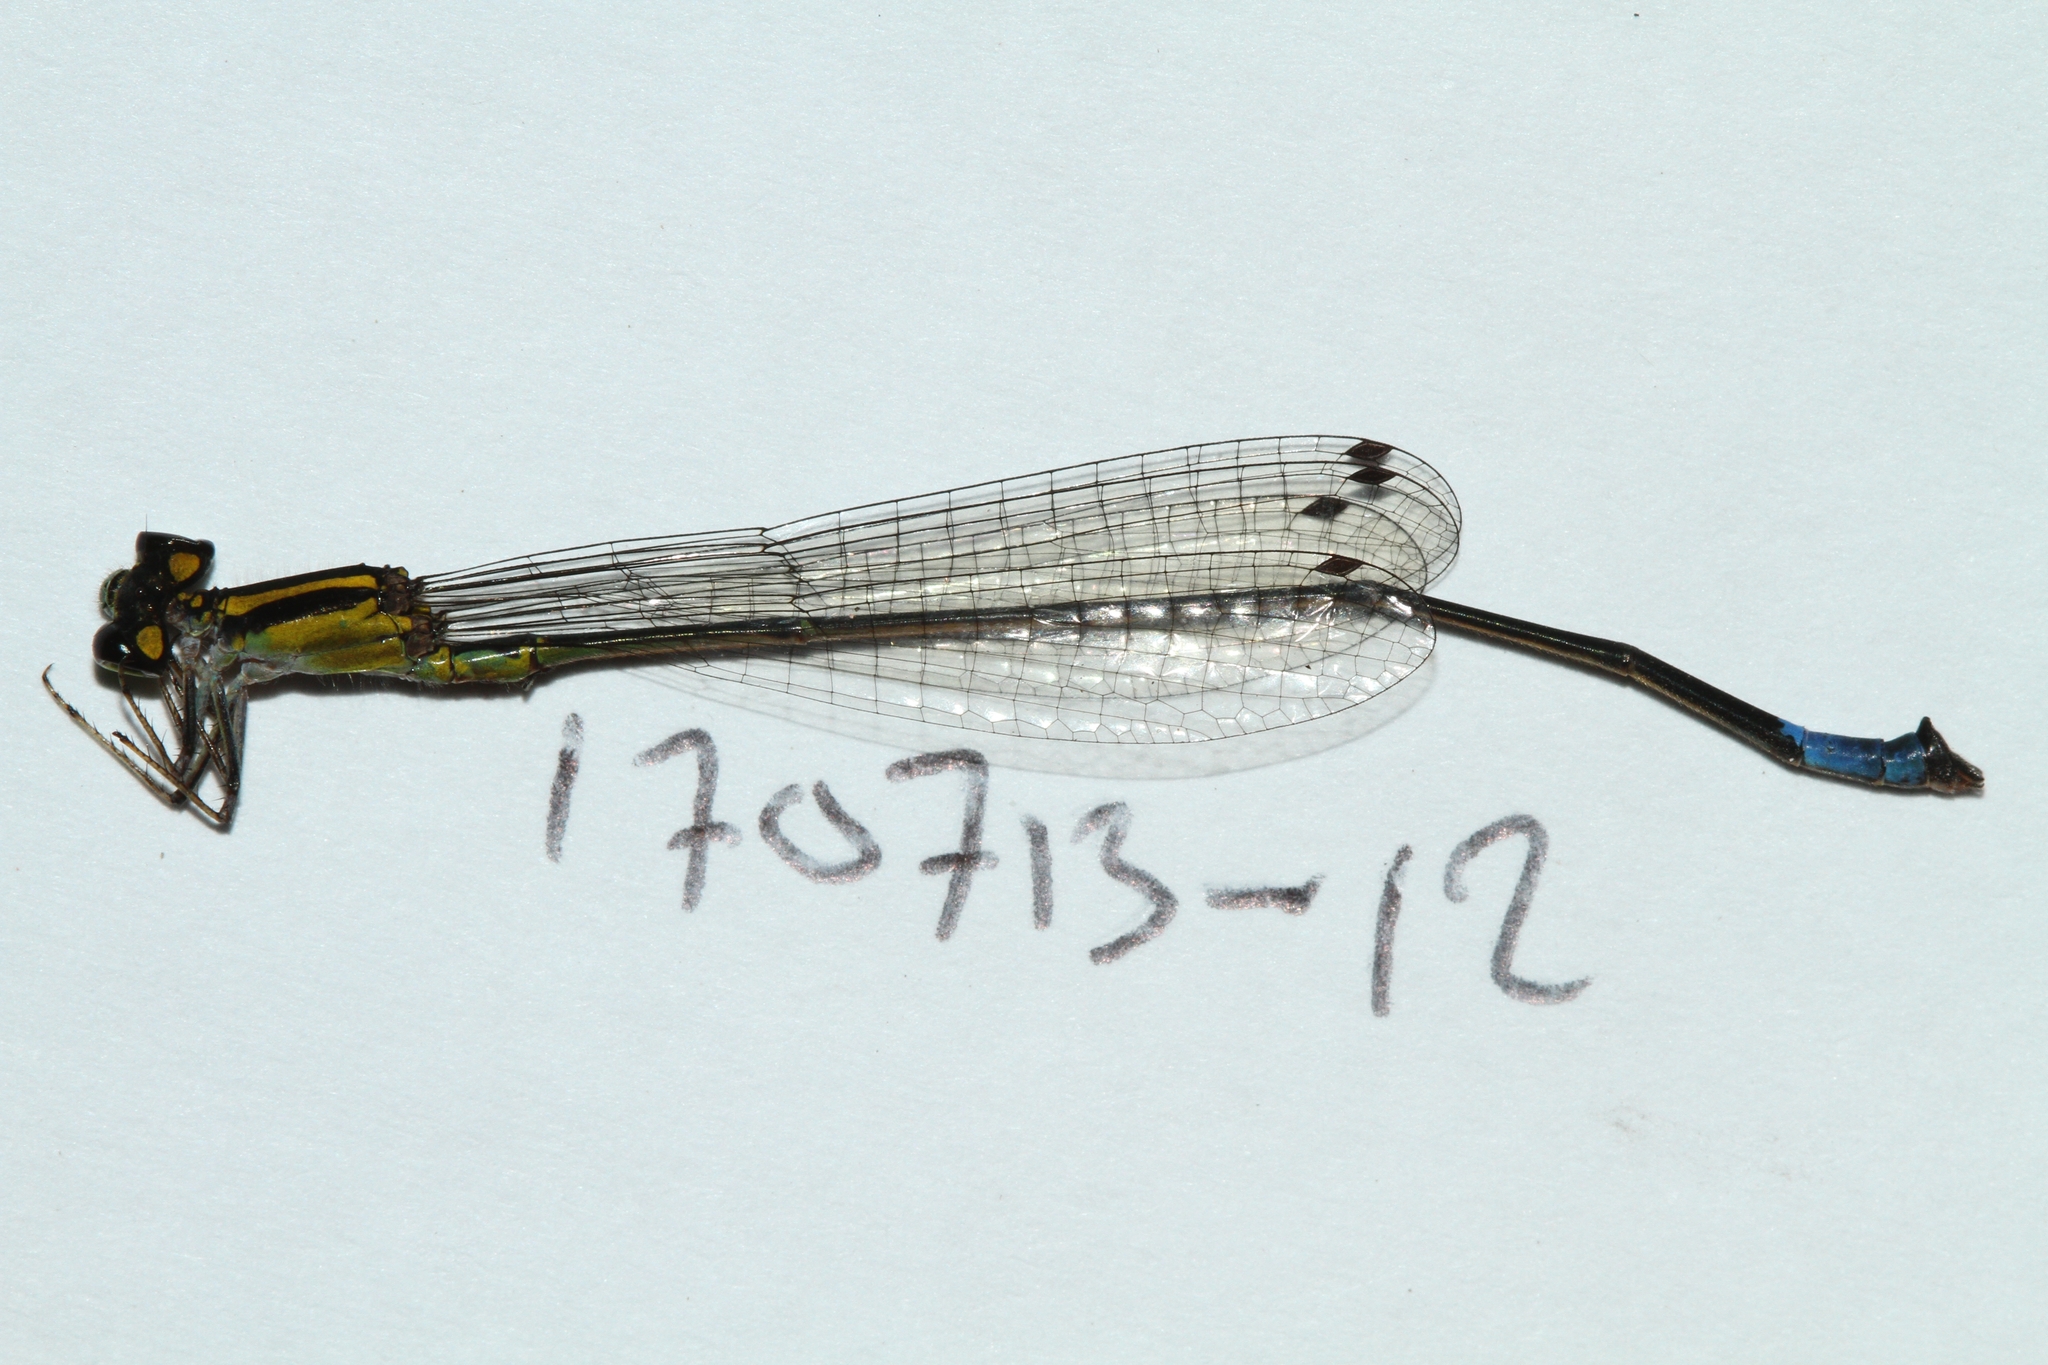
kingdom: Animalia
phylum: Arthropoda
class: Insecta
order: Odonata
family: Coenagrionidae
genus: Acanthagrion
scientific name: Acanthagrion ascendens
